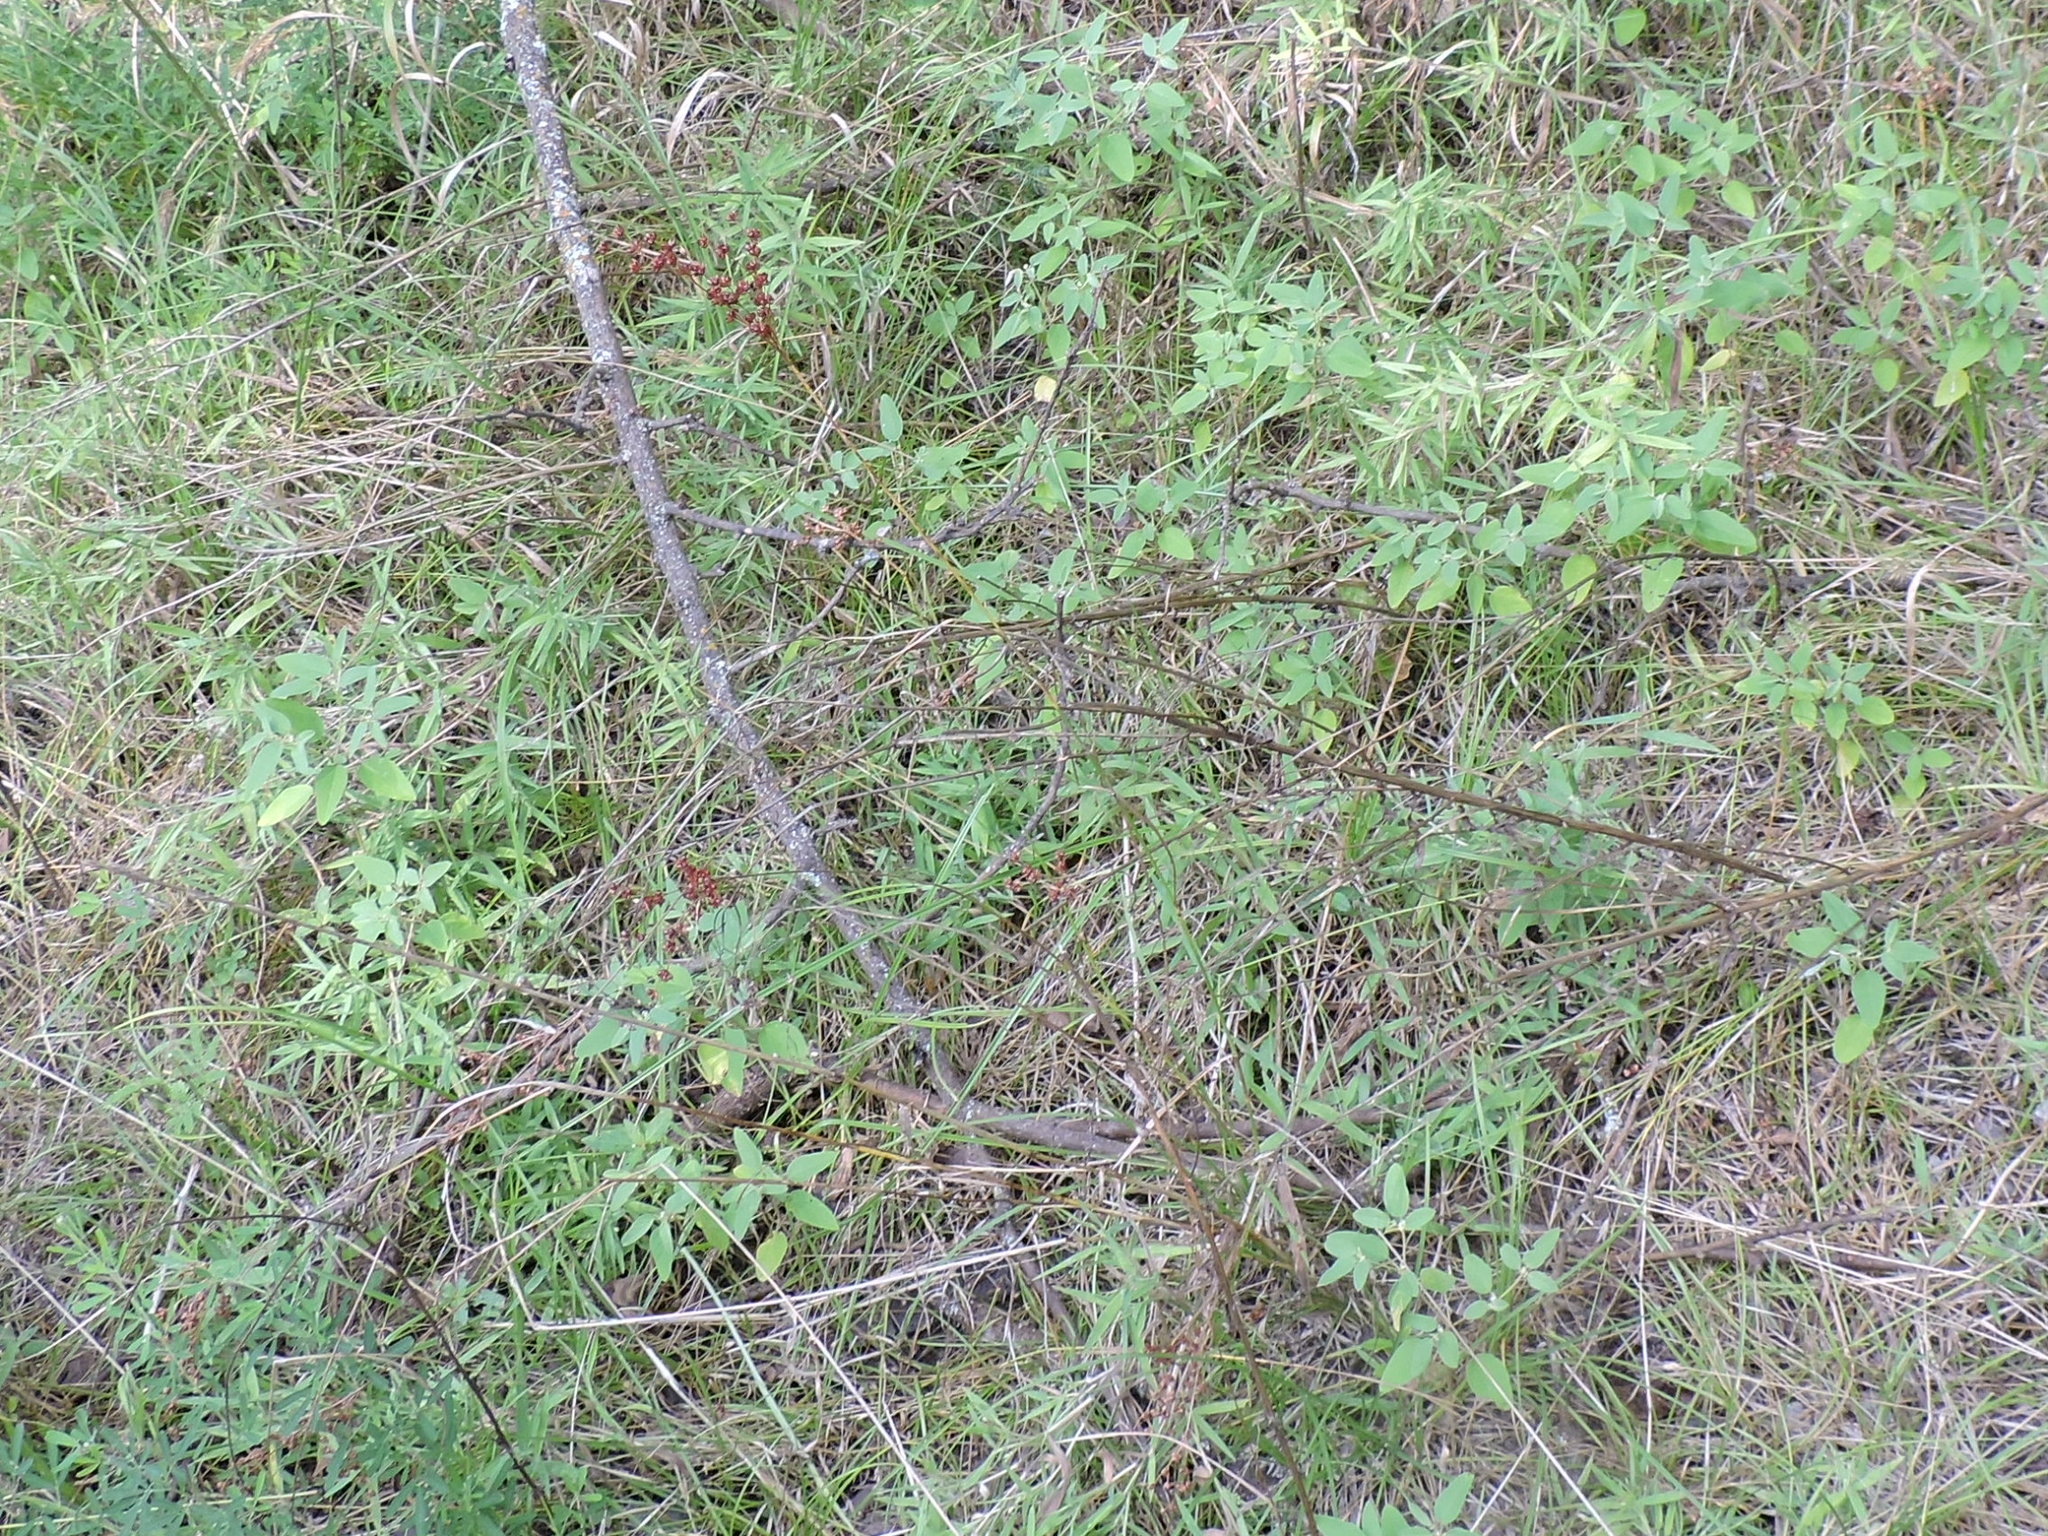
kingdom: Plantae
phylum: Tracheophyta
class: Liliopsida
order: Poales
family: Juncaceae
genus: Juncus
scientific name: Juncus marginatus
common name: Grass-leaf rush
